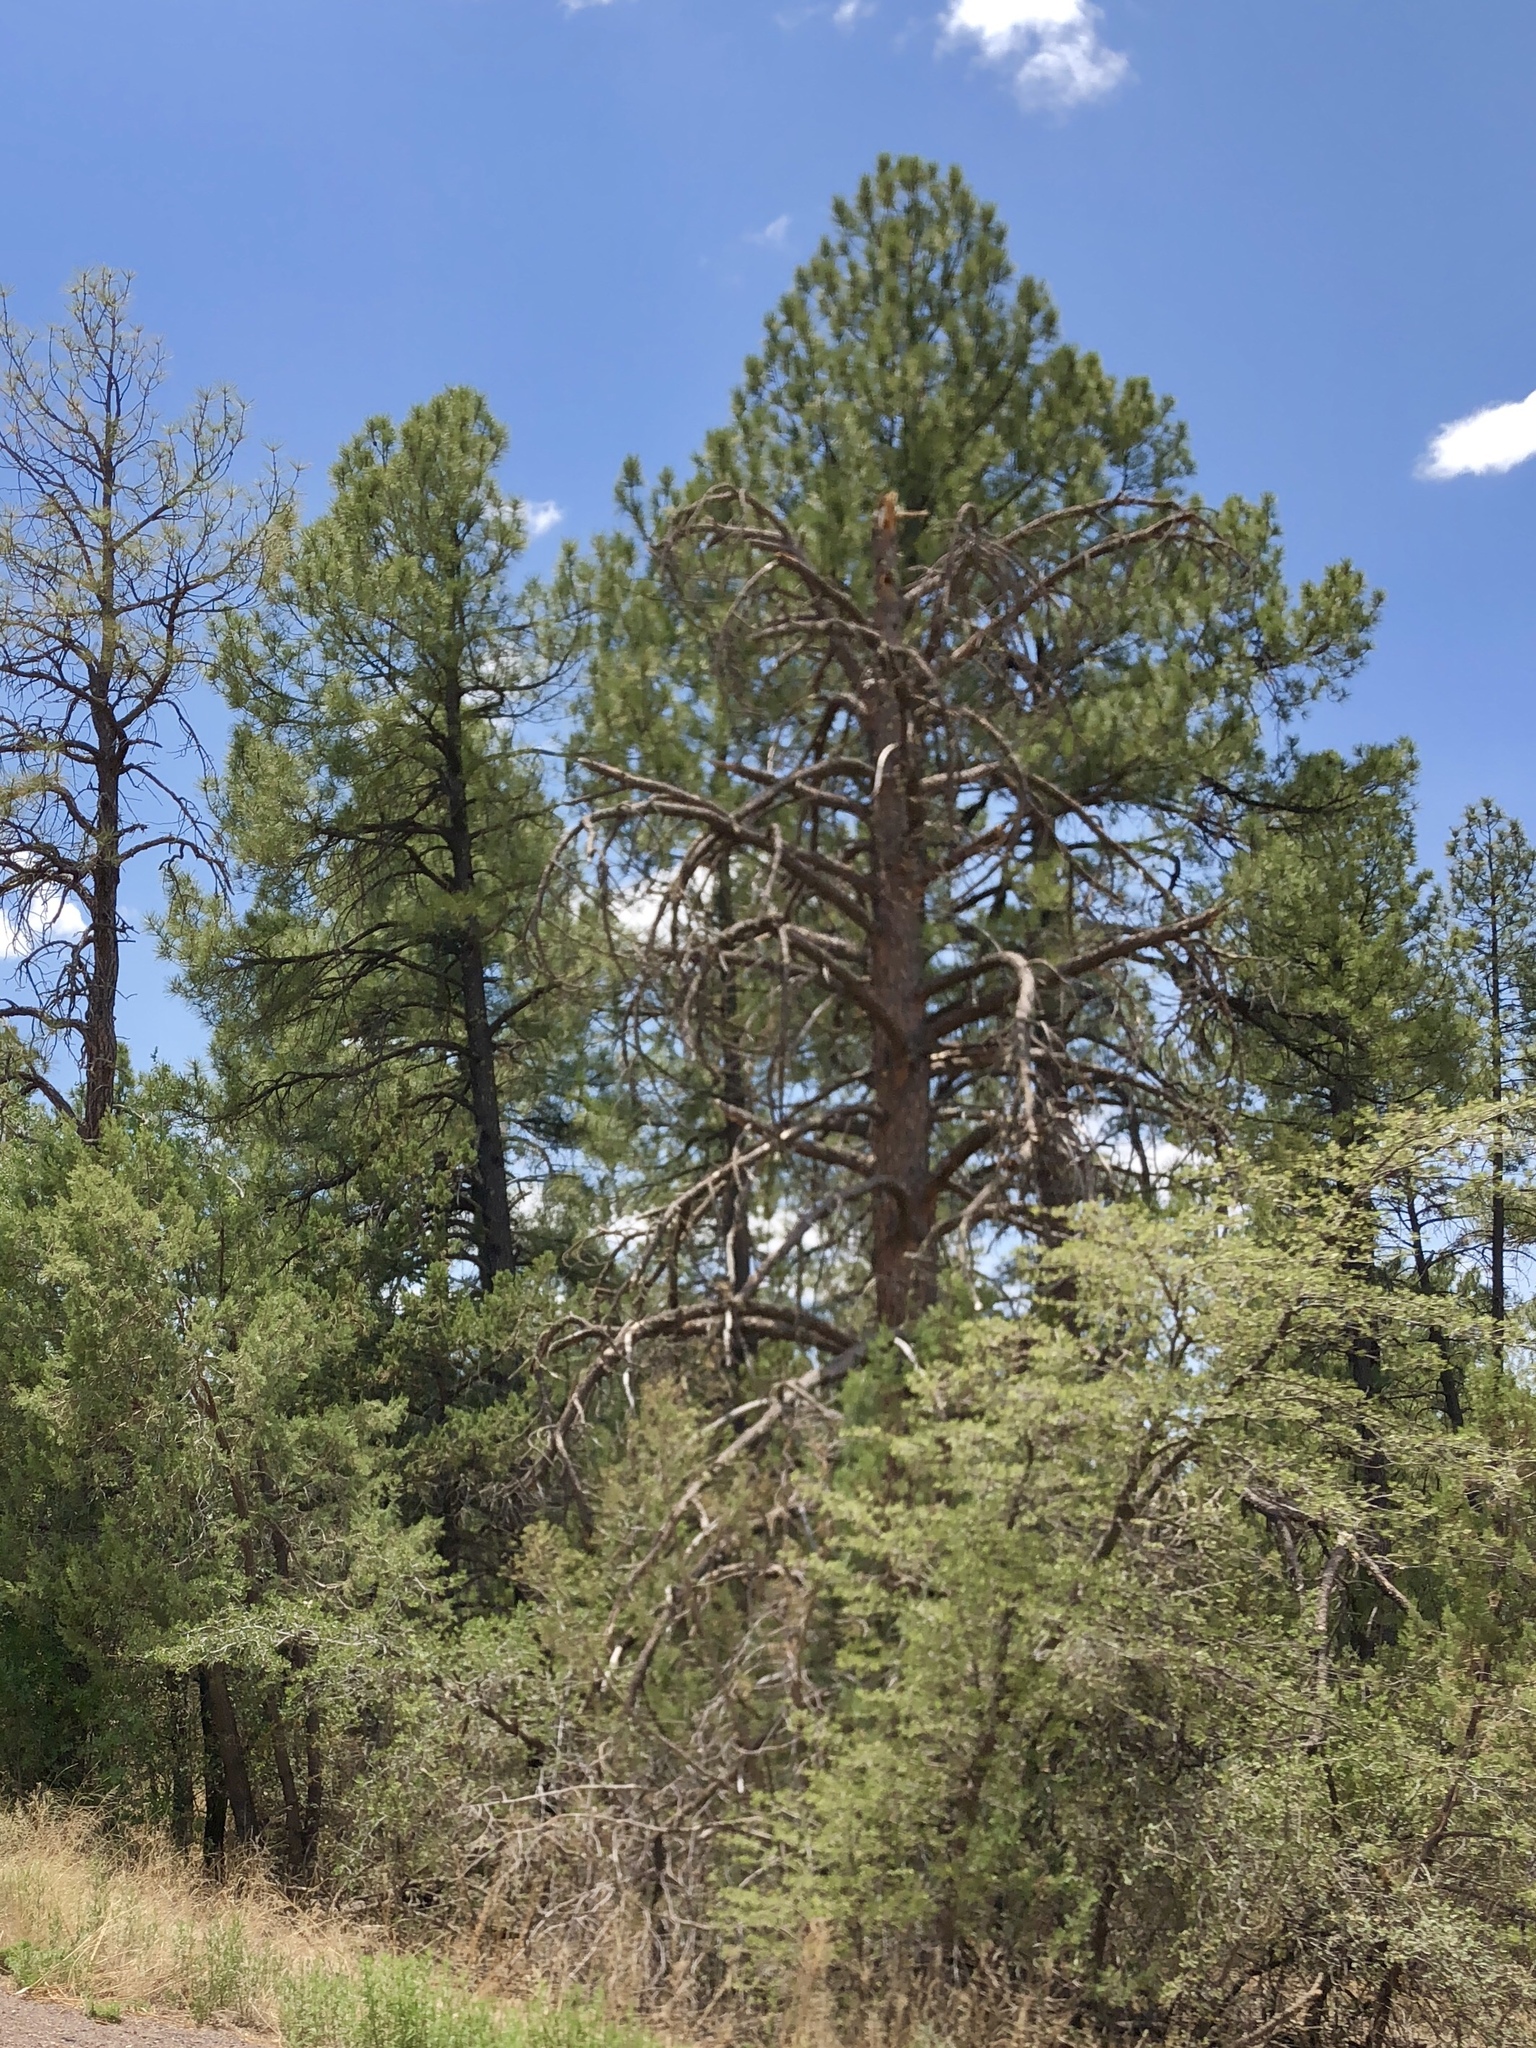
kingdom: Plantae
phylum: Tracheophyta
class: Pinopsida
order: Pinales
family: Pinaceae
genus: Pinus
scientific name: Pinus ponderosa
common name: Western yellow-pine
